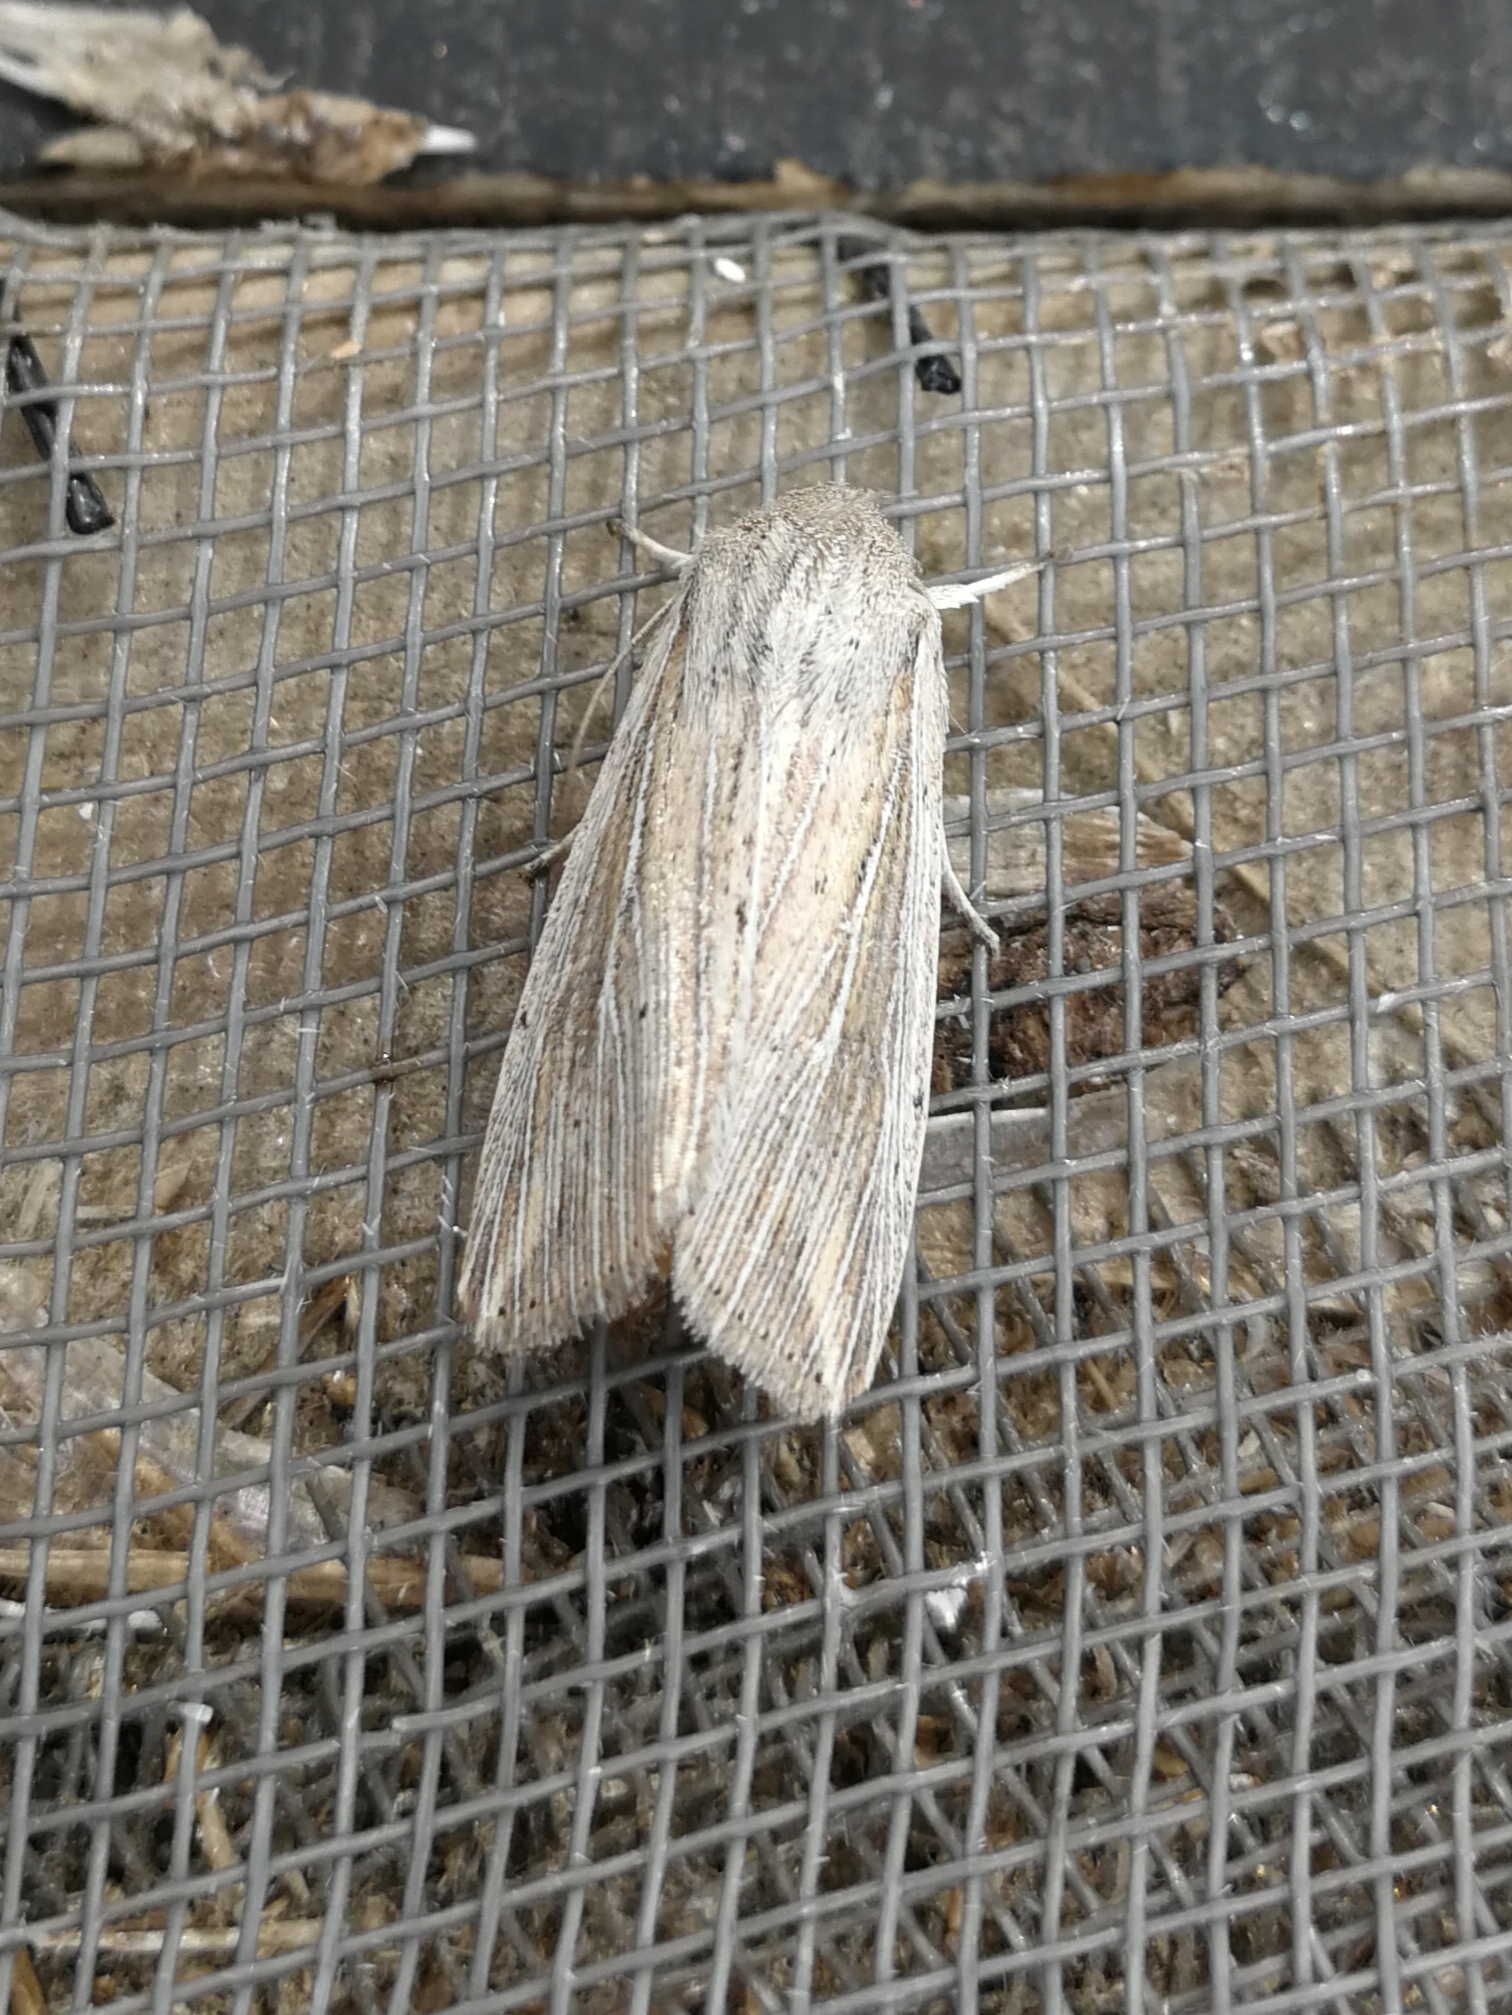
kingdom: Animalia
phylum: Arthropoda
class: Insecta
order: Lepidoptera
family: Noctuidae
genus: Mythimna
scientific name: Mythimna riparia
